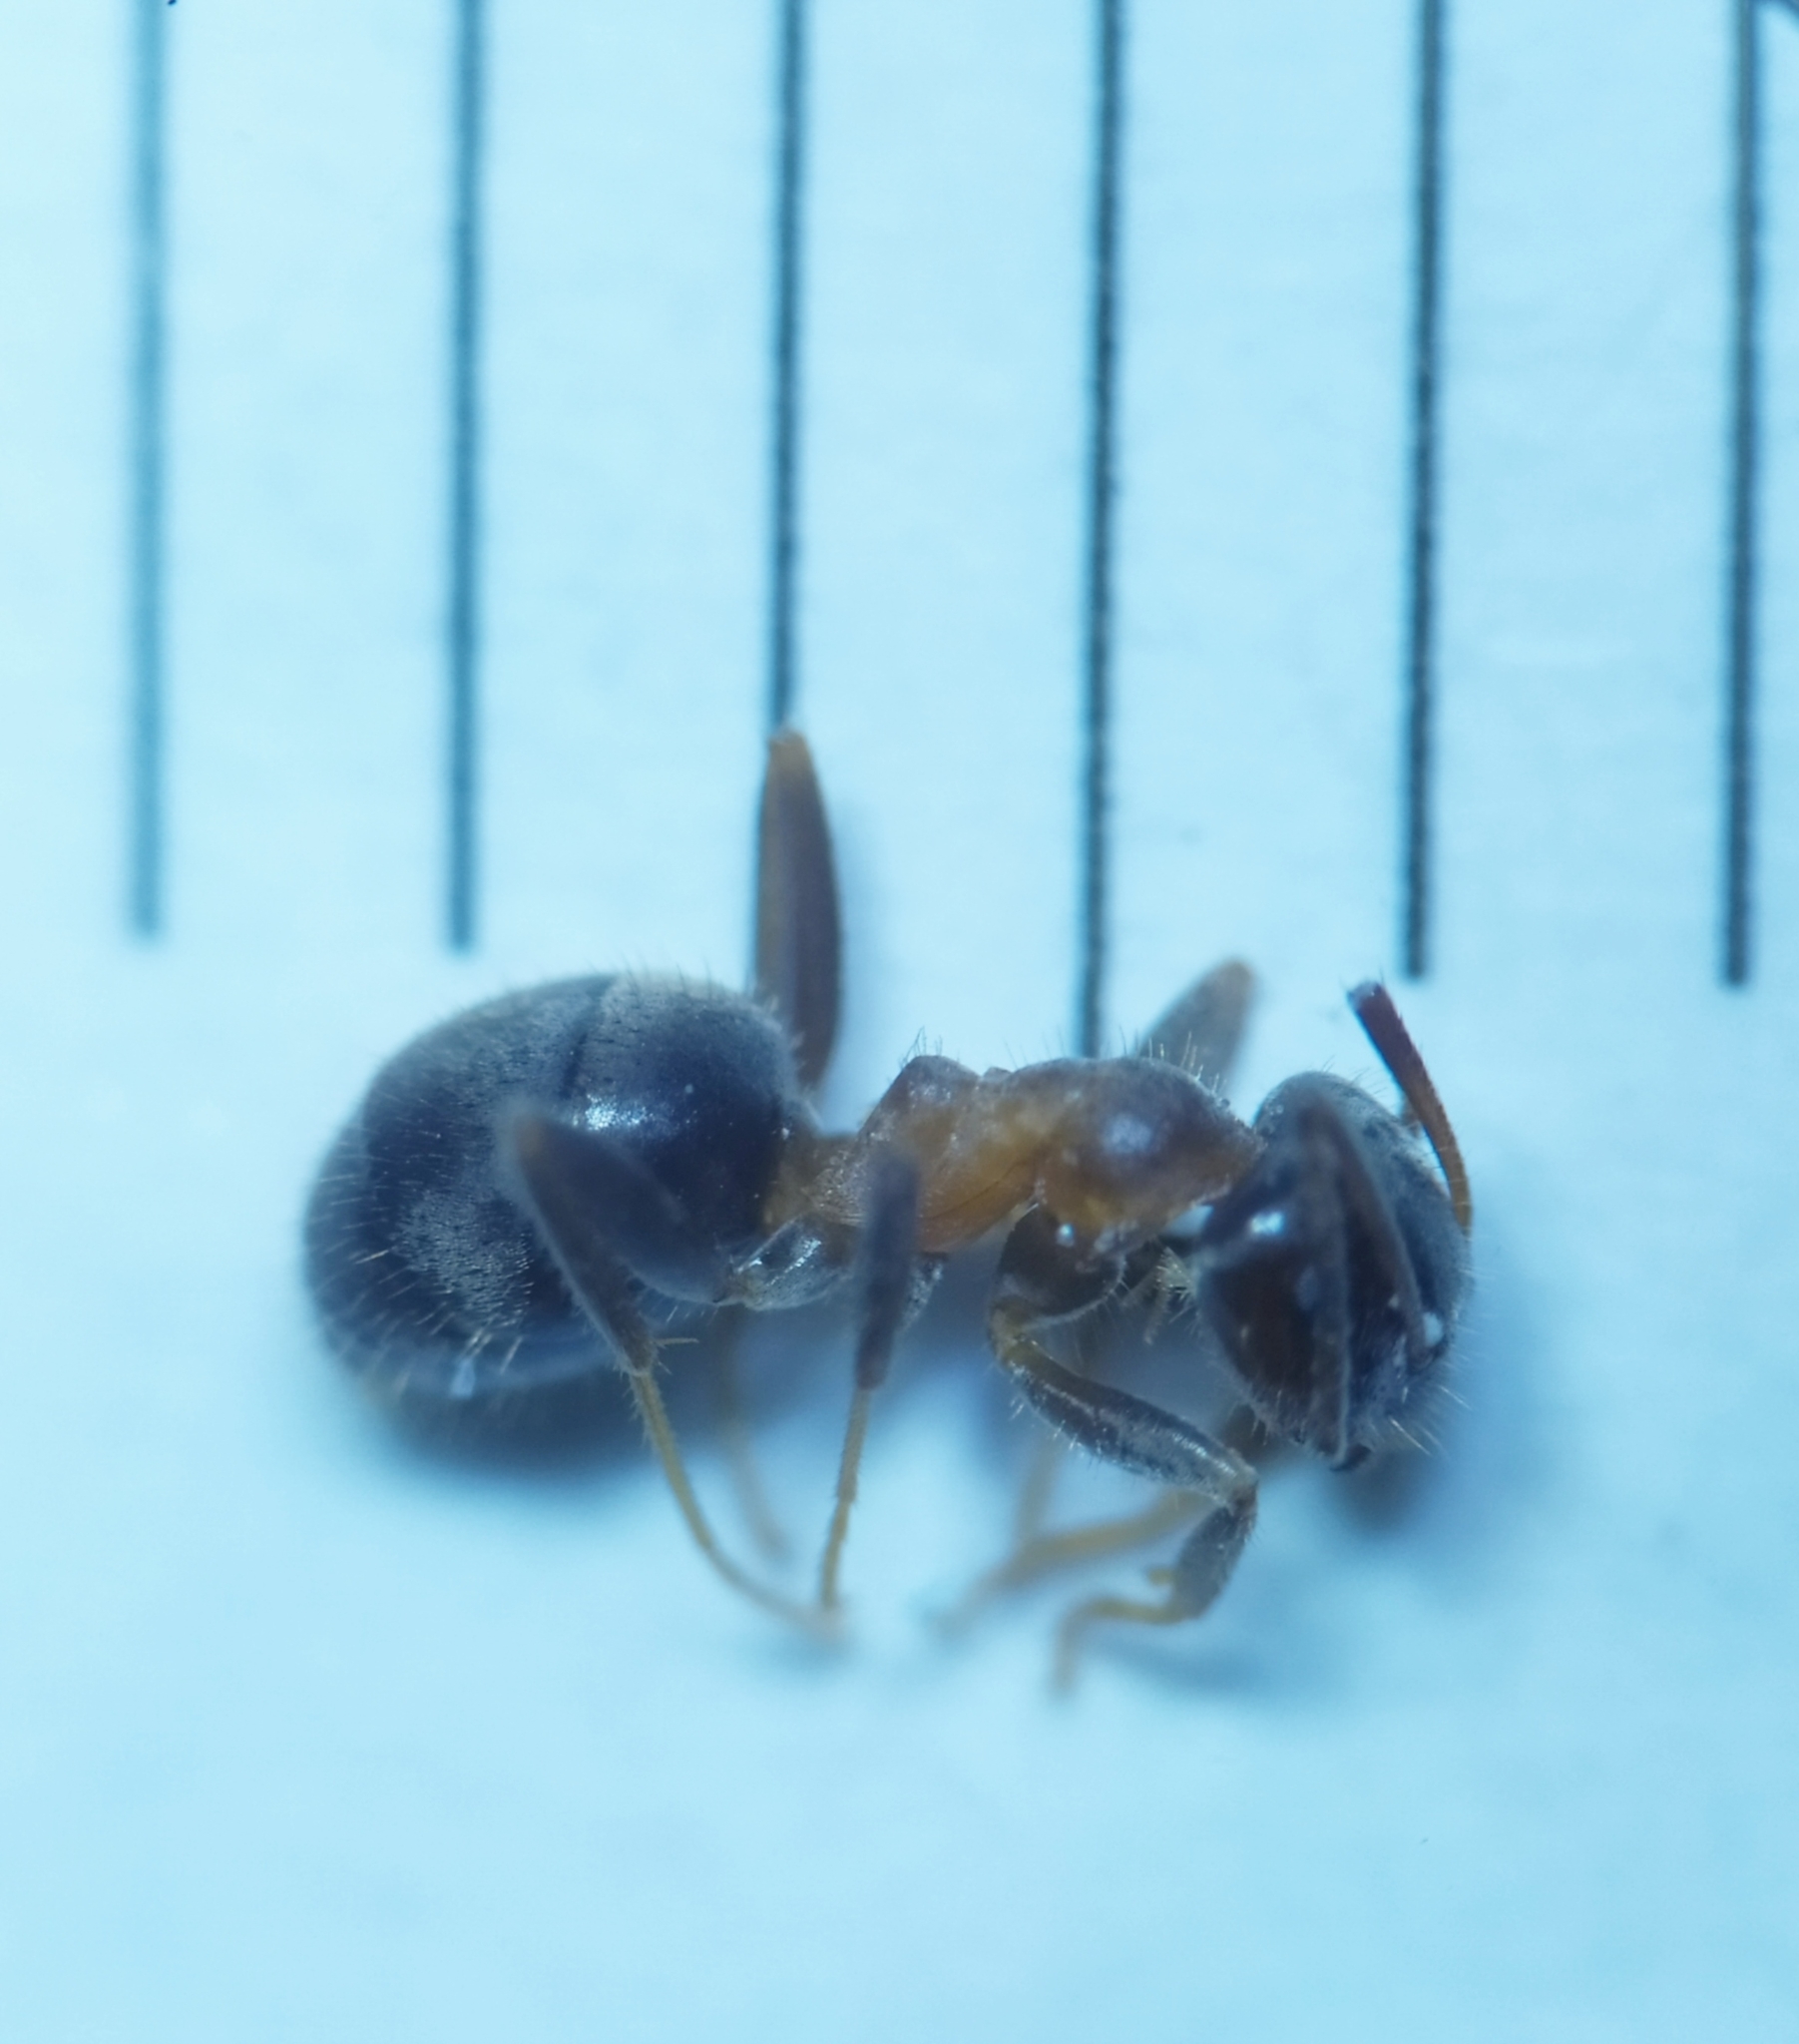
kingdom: Animalia
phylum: Arthropoda
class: Insecta
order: Hymenoptera
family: Formicidae
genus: Lasius
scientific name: Lasius emarginatus
